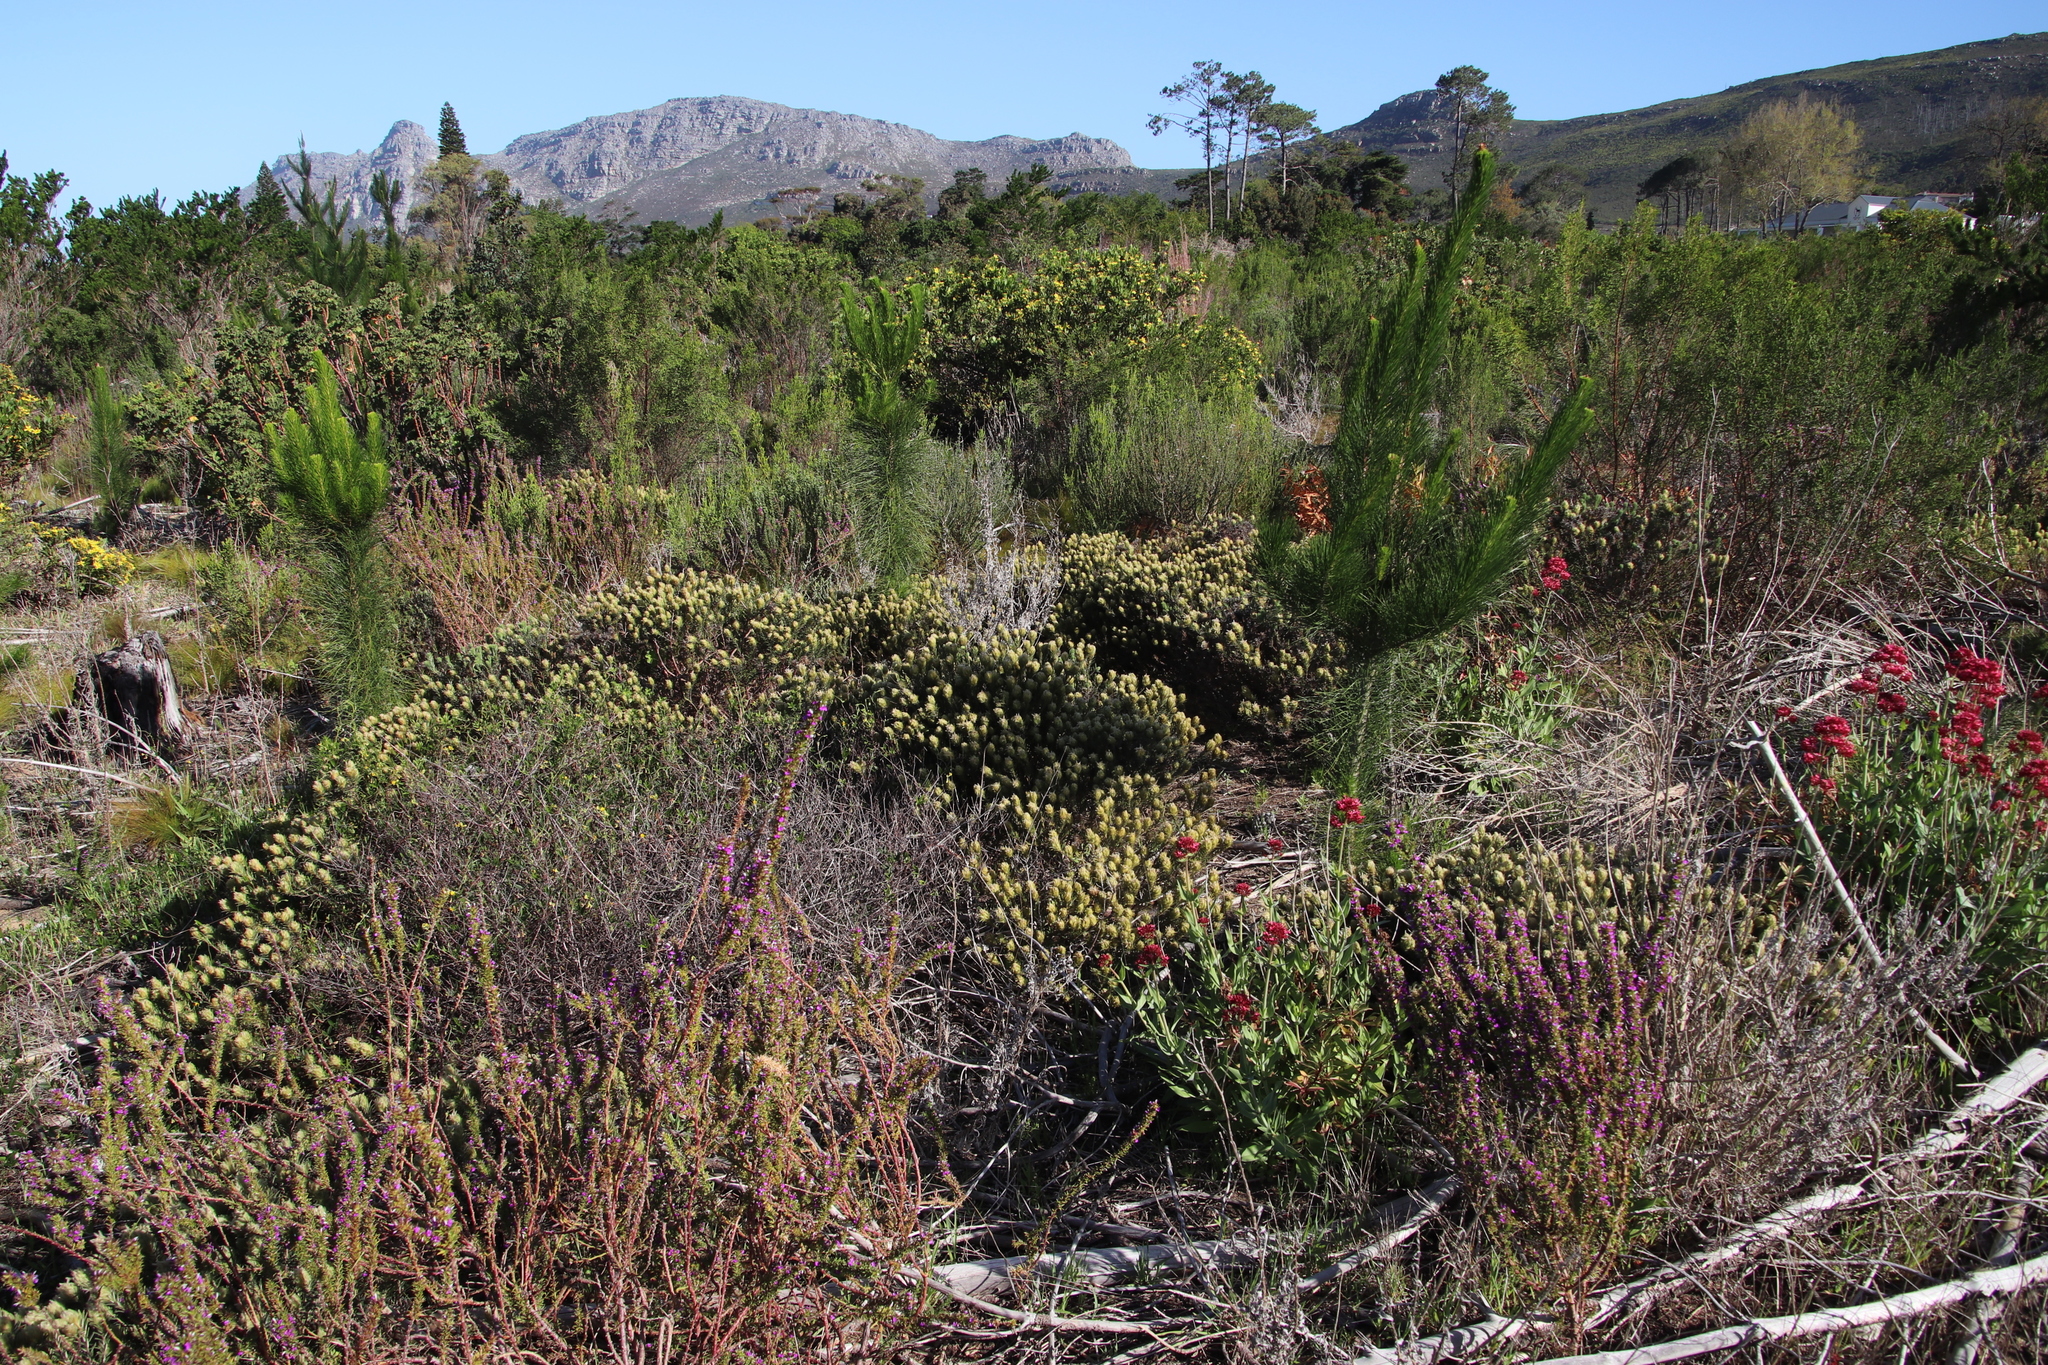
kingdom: Plantae
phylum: Tracheophyta
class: Magnoliopsida
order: Rosales
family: Rhamnaceae
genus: Phylica
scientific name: Phylica pubescens
